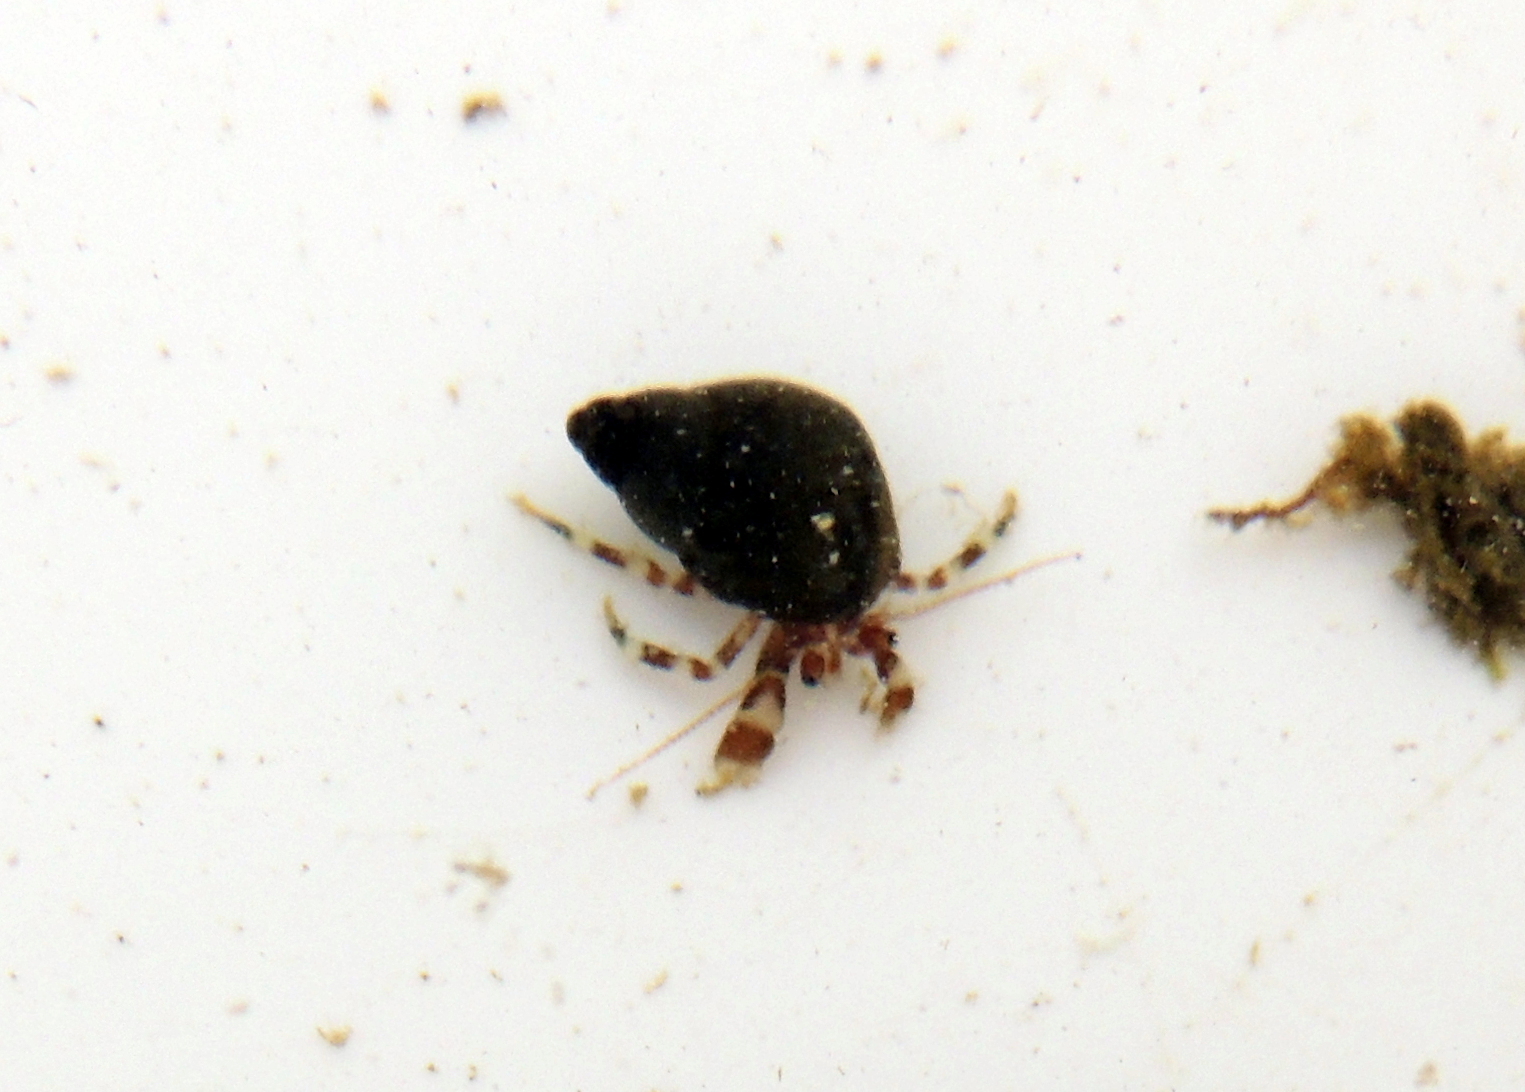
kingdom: Animalia
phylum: Arthropoda
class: Malacostraca
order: Decapoda
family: Paguridae
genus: Pagurus
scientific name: Pagurus samuelis
